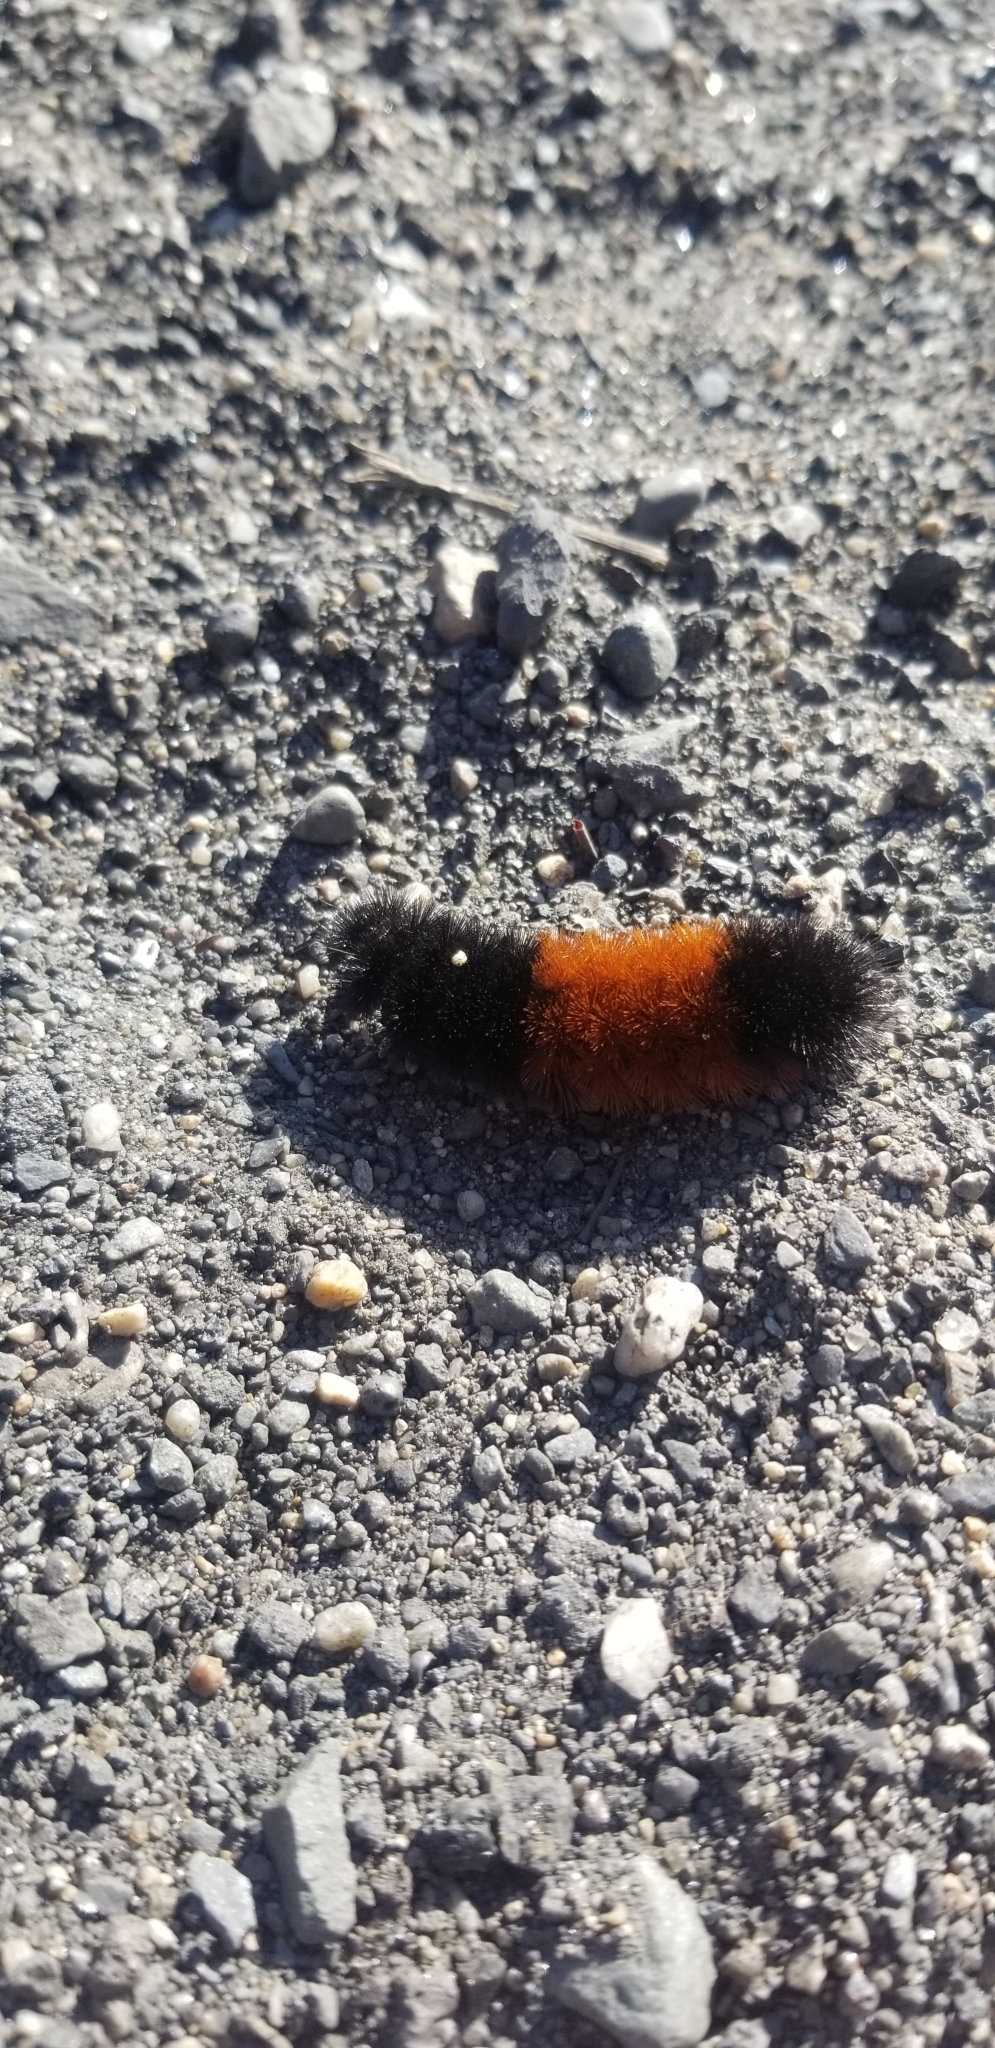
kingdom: Animalia
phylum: Arthropoda
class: Insecta
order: Lepidoptera
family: Erebidae
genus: Pyrrharctia
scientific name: Pyrrharctia isabella
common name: Isabella tiger moth
